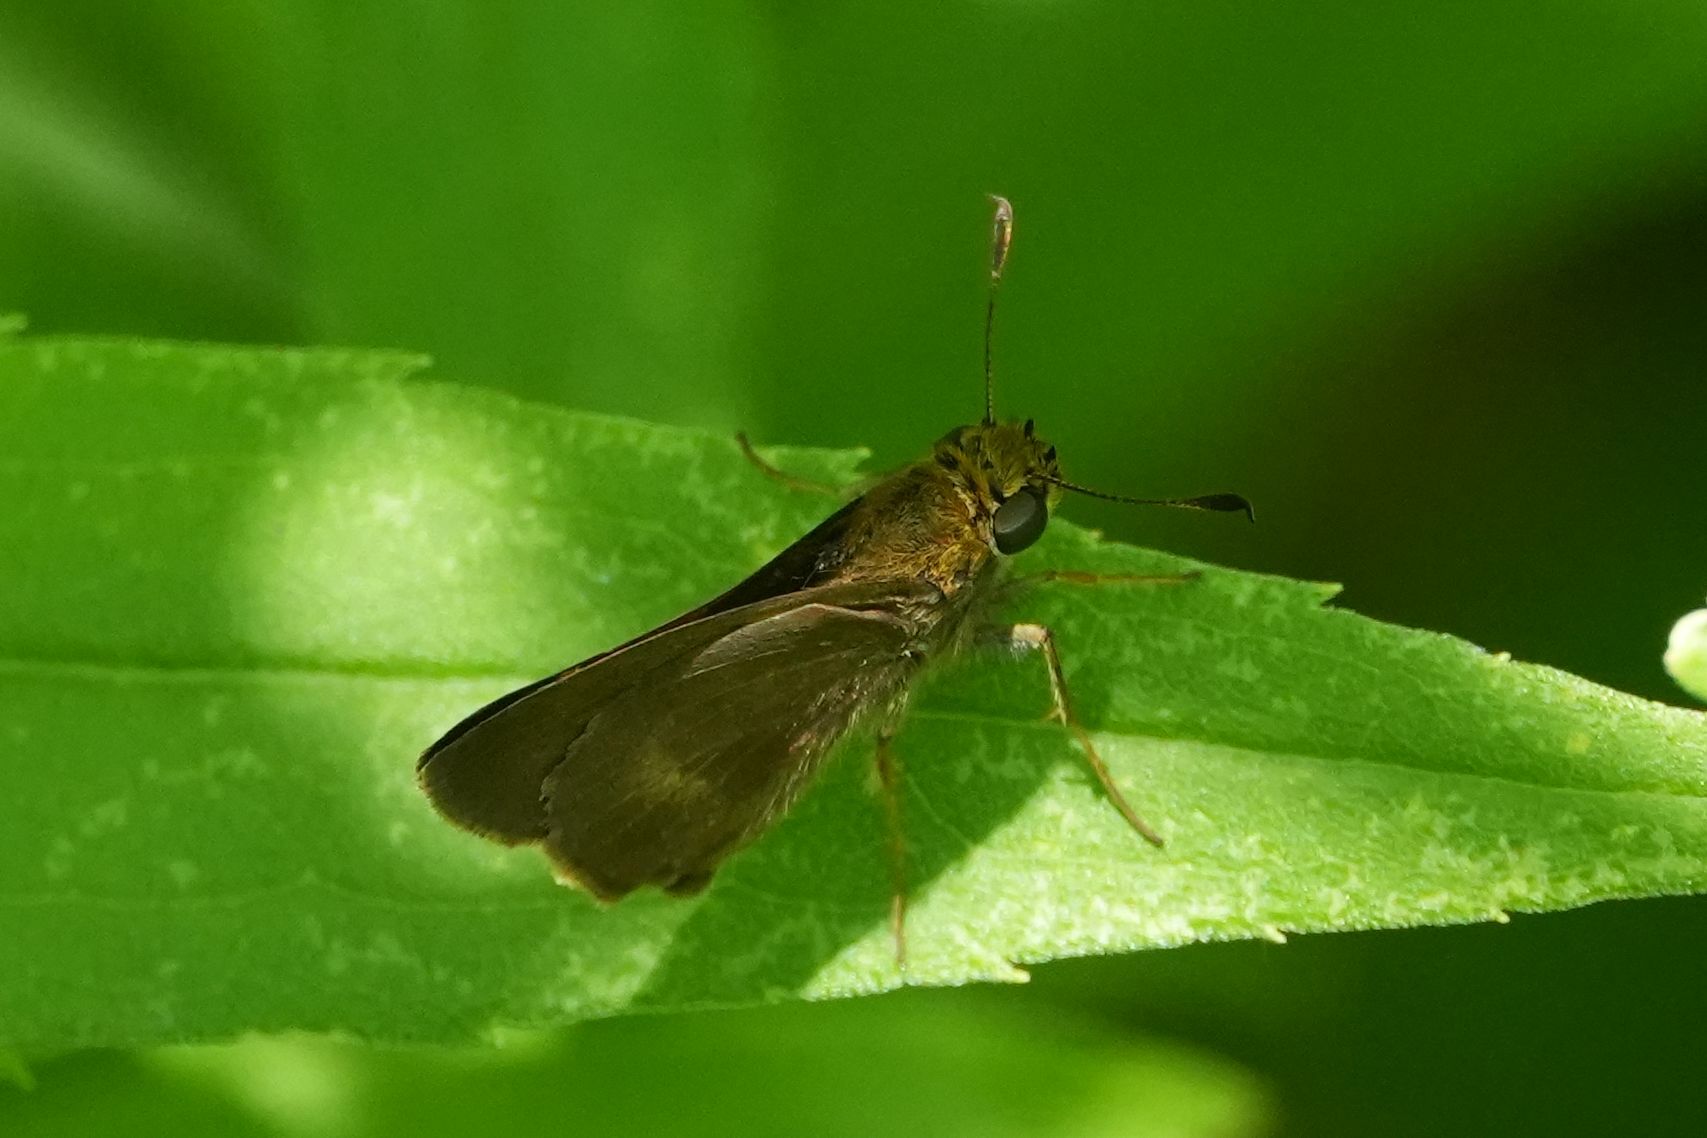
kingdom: Animalia
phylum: Arthropoda
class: Insecta
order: Lepidoptera
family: Hesperiidae
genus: Euphyes
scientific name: Euphyes vestris
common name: Dun skipper
